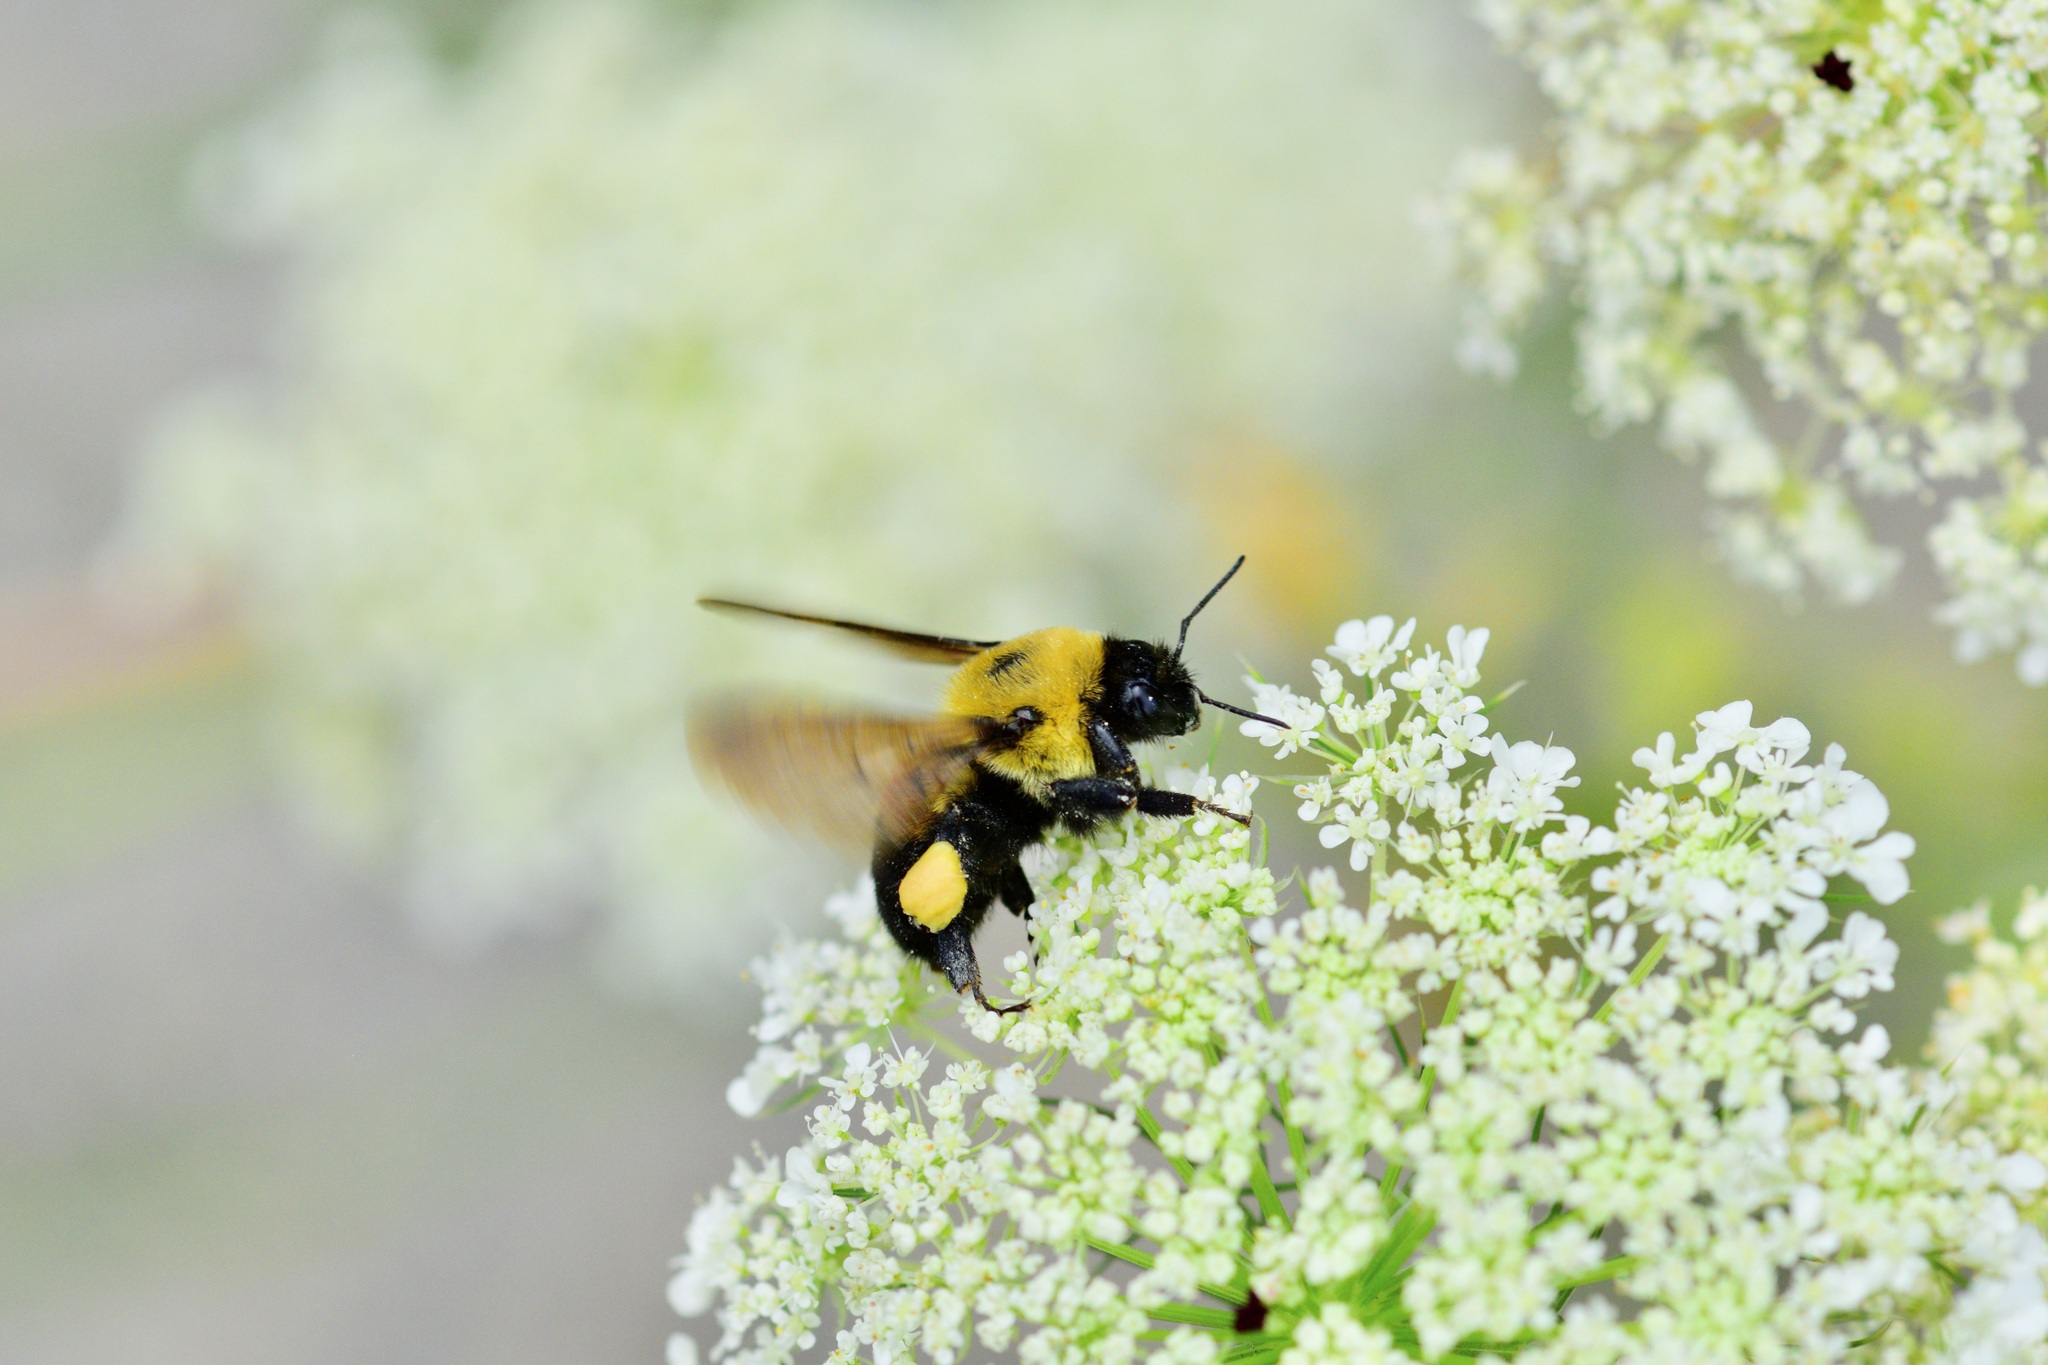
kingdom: Animalia
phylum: Arthropoda
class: Insecta
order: Hymenoptera
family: Apidae
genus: Bombus
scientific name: Bombus griseocollis
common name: Brown-belted bumble bee
